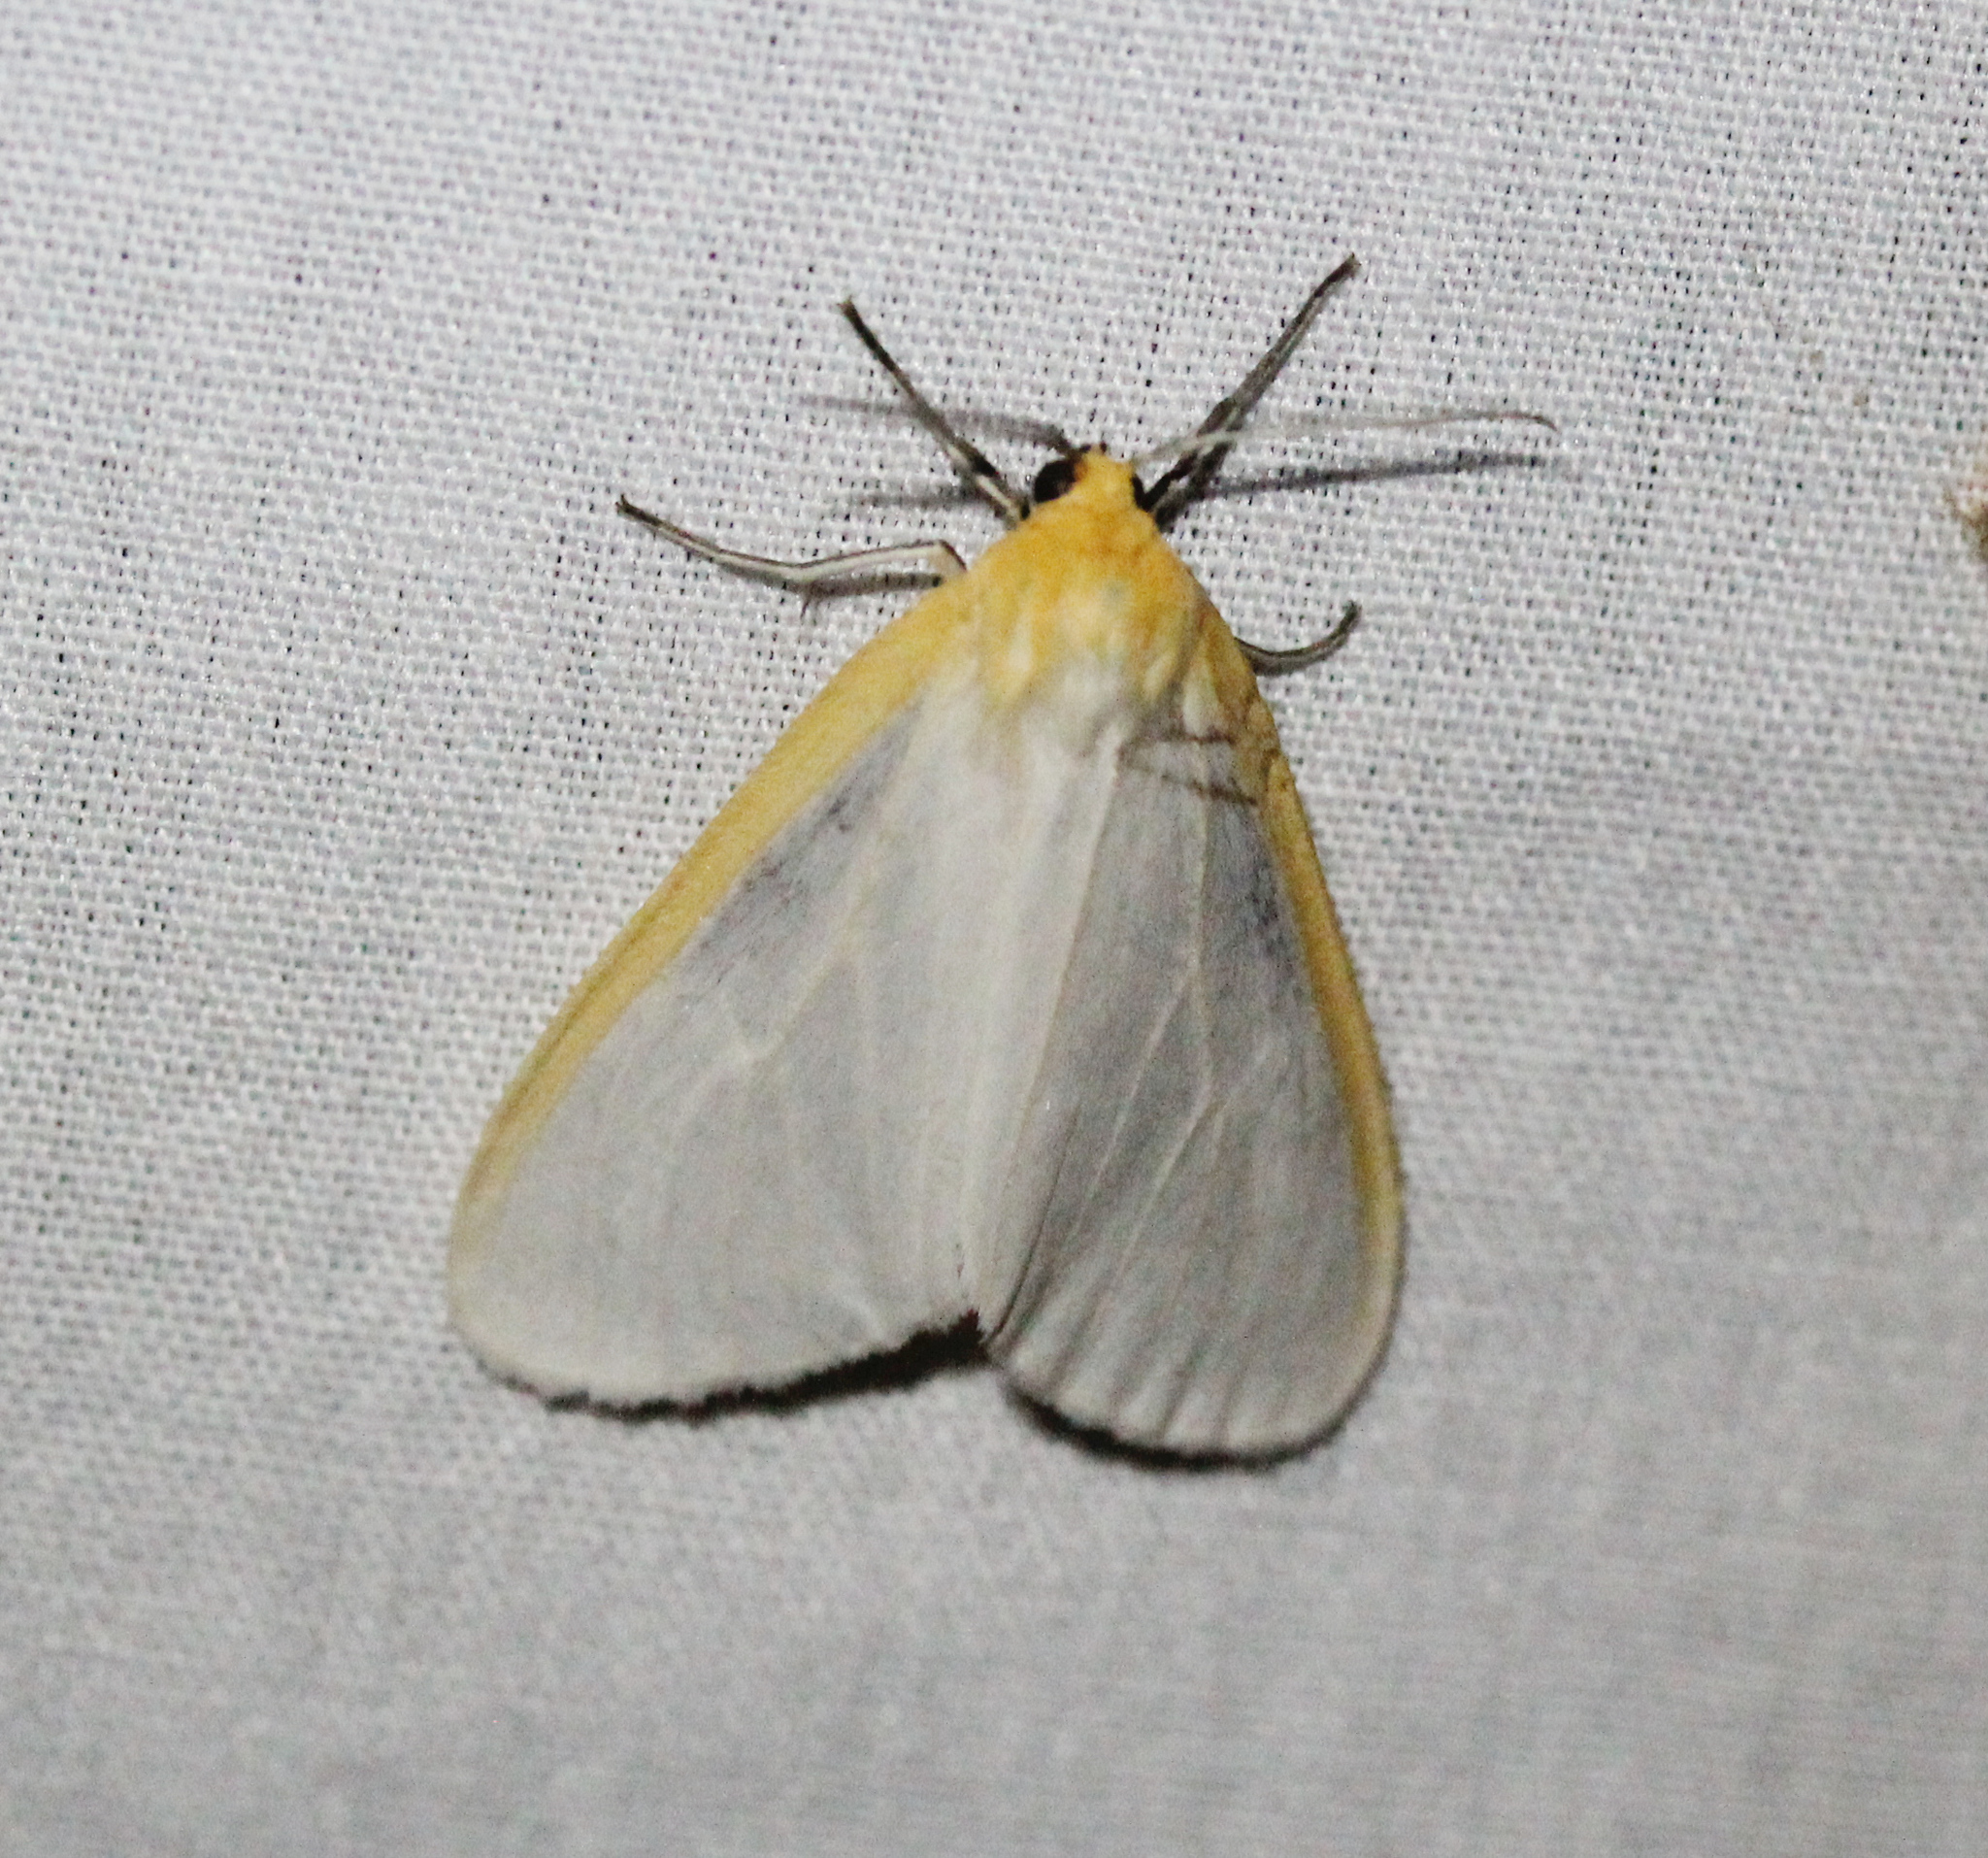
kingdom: Animalia
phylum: Arthropoda
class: Insecta
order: Lepidoptera
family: Erebidae
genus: Cycnia
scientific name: Cycnia tenera
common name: Delicate cycnia moth
